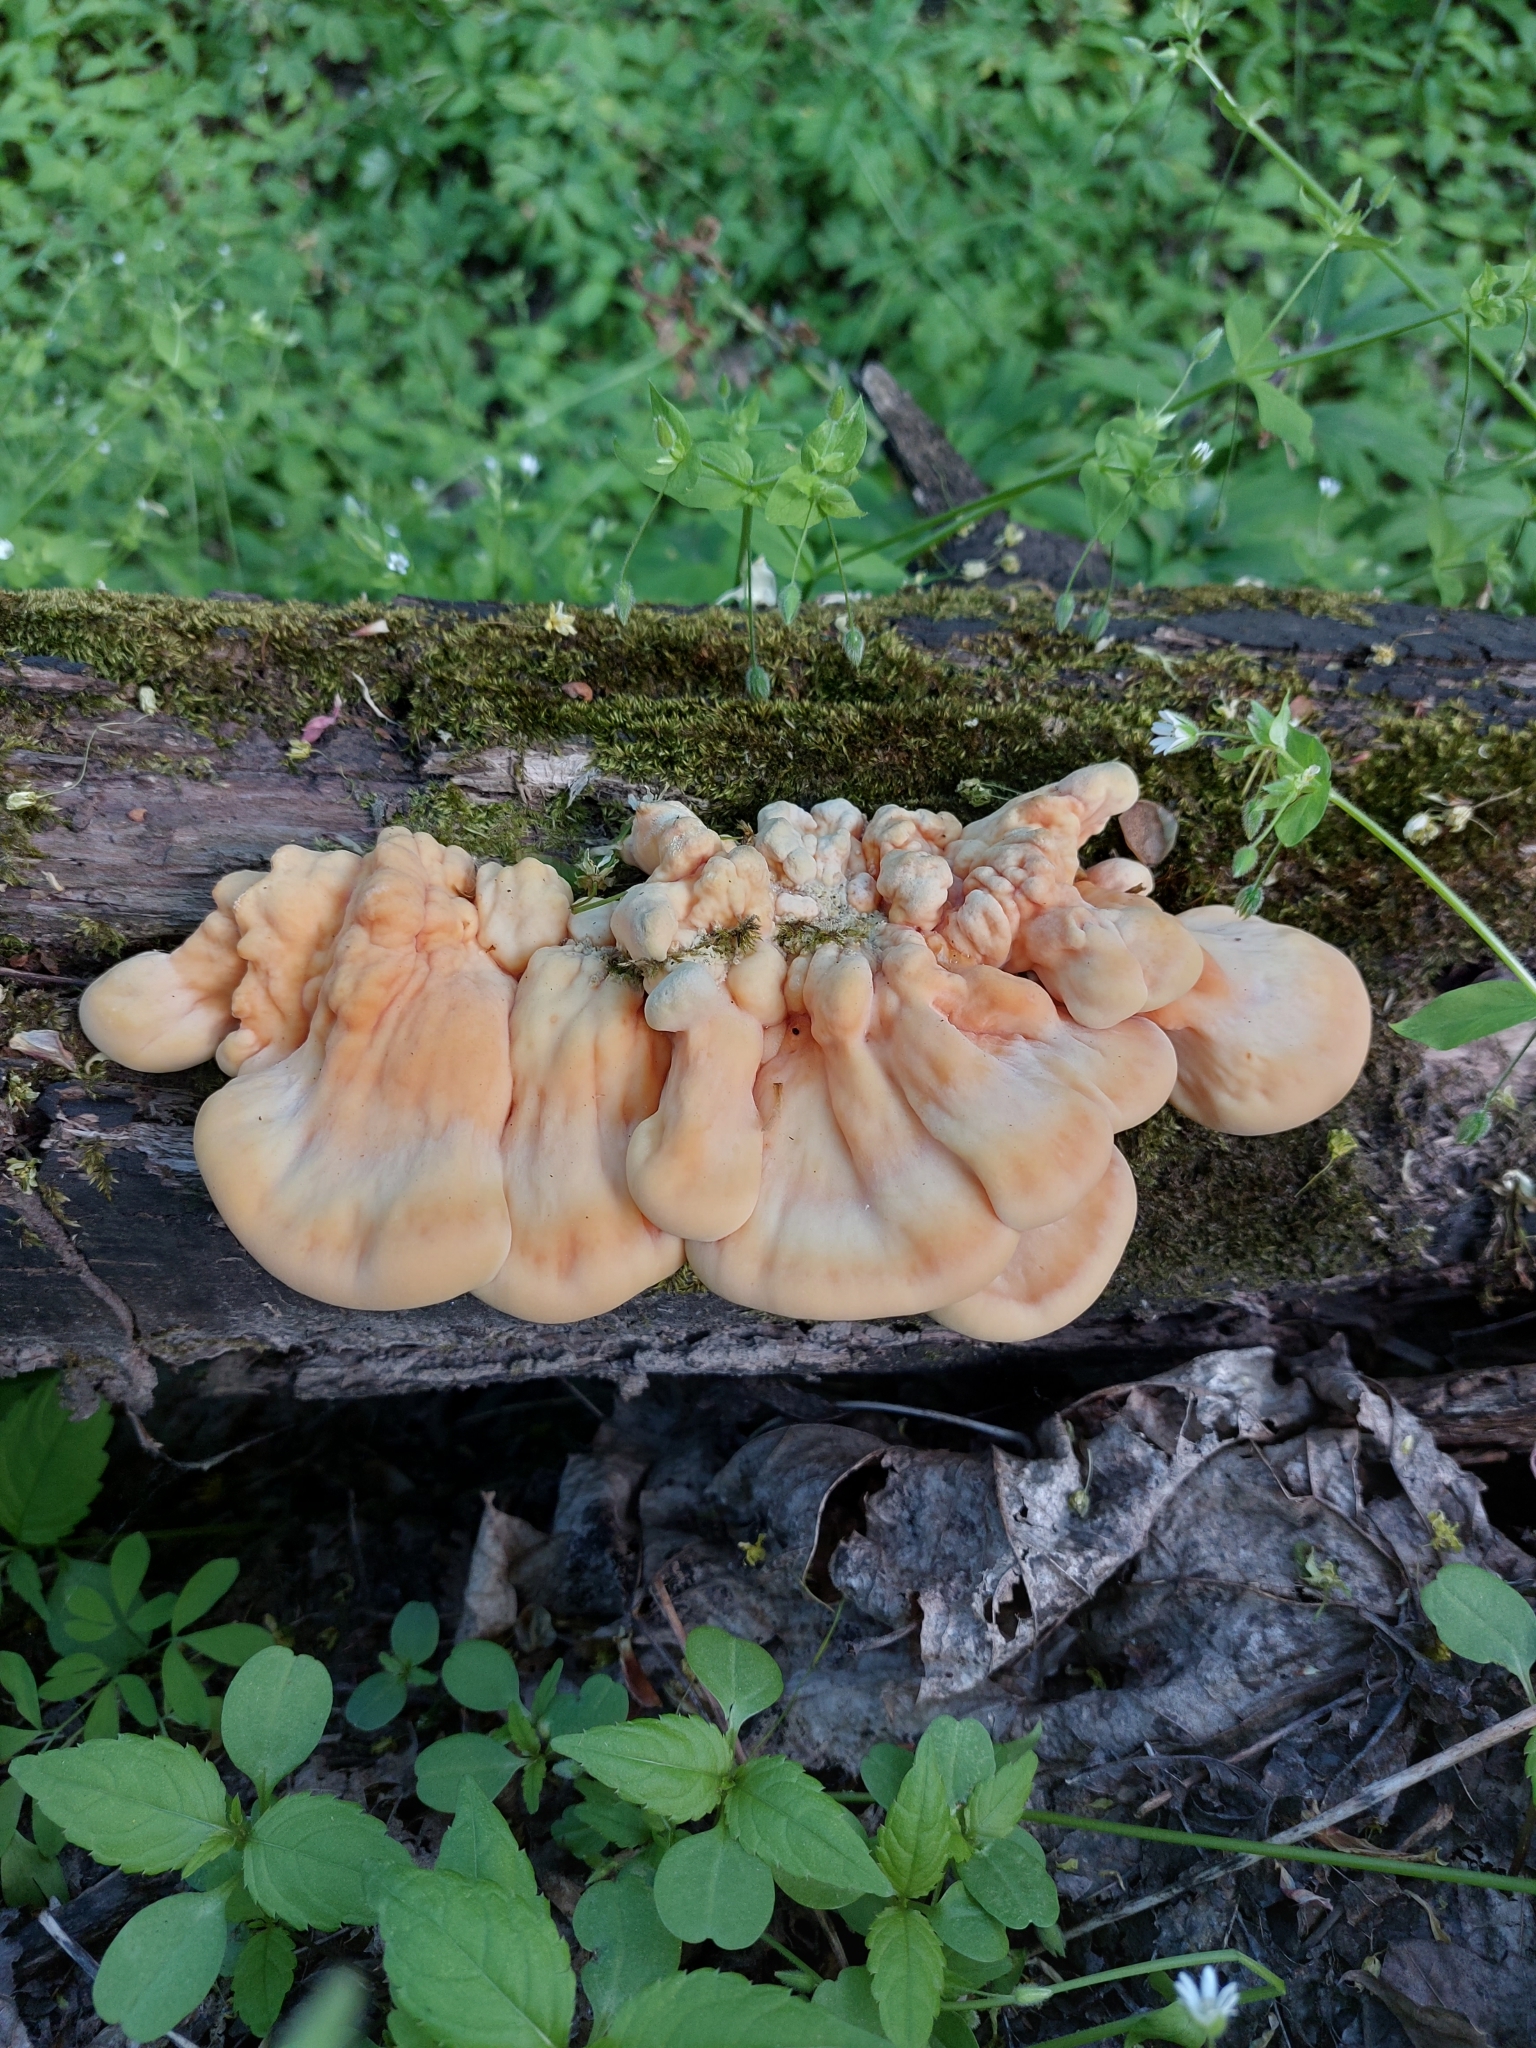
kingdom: Fungi
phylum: Basidiomycota
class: Agaricomycetes
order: Polyporales
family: Laetiporaceae
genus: Laetiporus
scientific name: Laetiporus sulphureus
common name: Chicken of the woods
